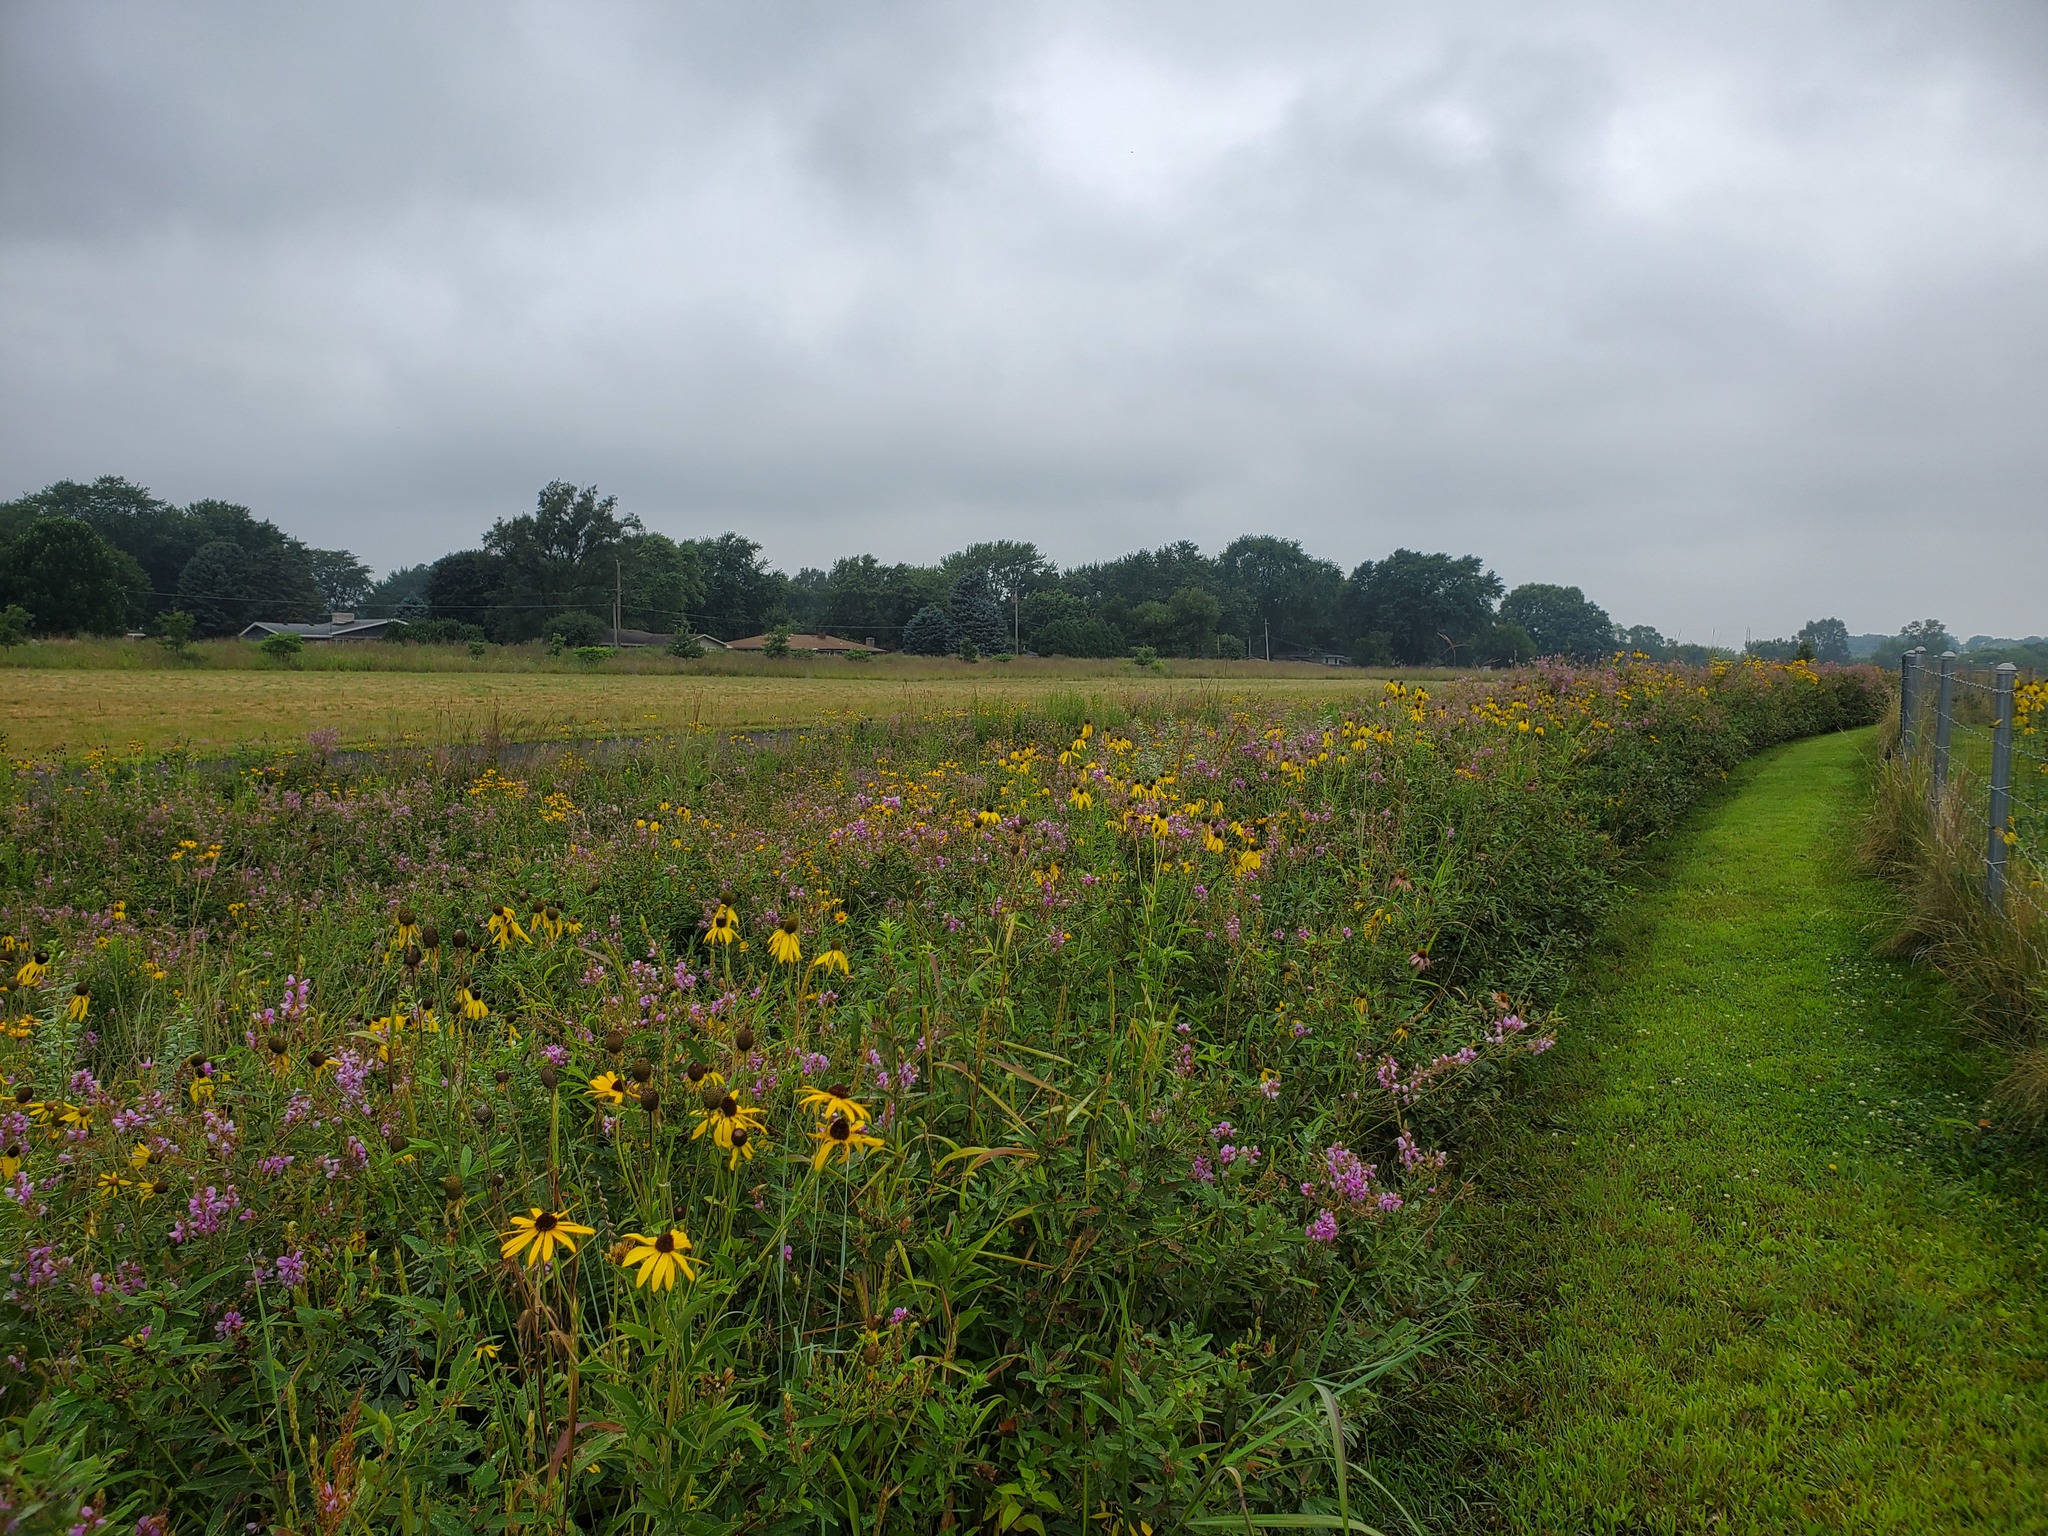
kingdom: Plantae
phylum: Tracheophyta
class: Magnoliopsida
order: Asterales
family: Asteraceae
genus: Ratibida
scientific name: Ratibida pinnata
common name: Drooping prairie-coneflower
